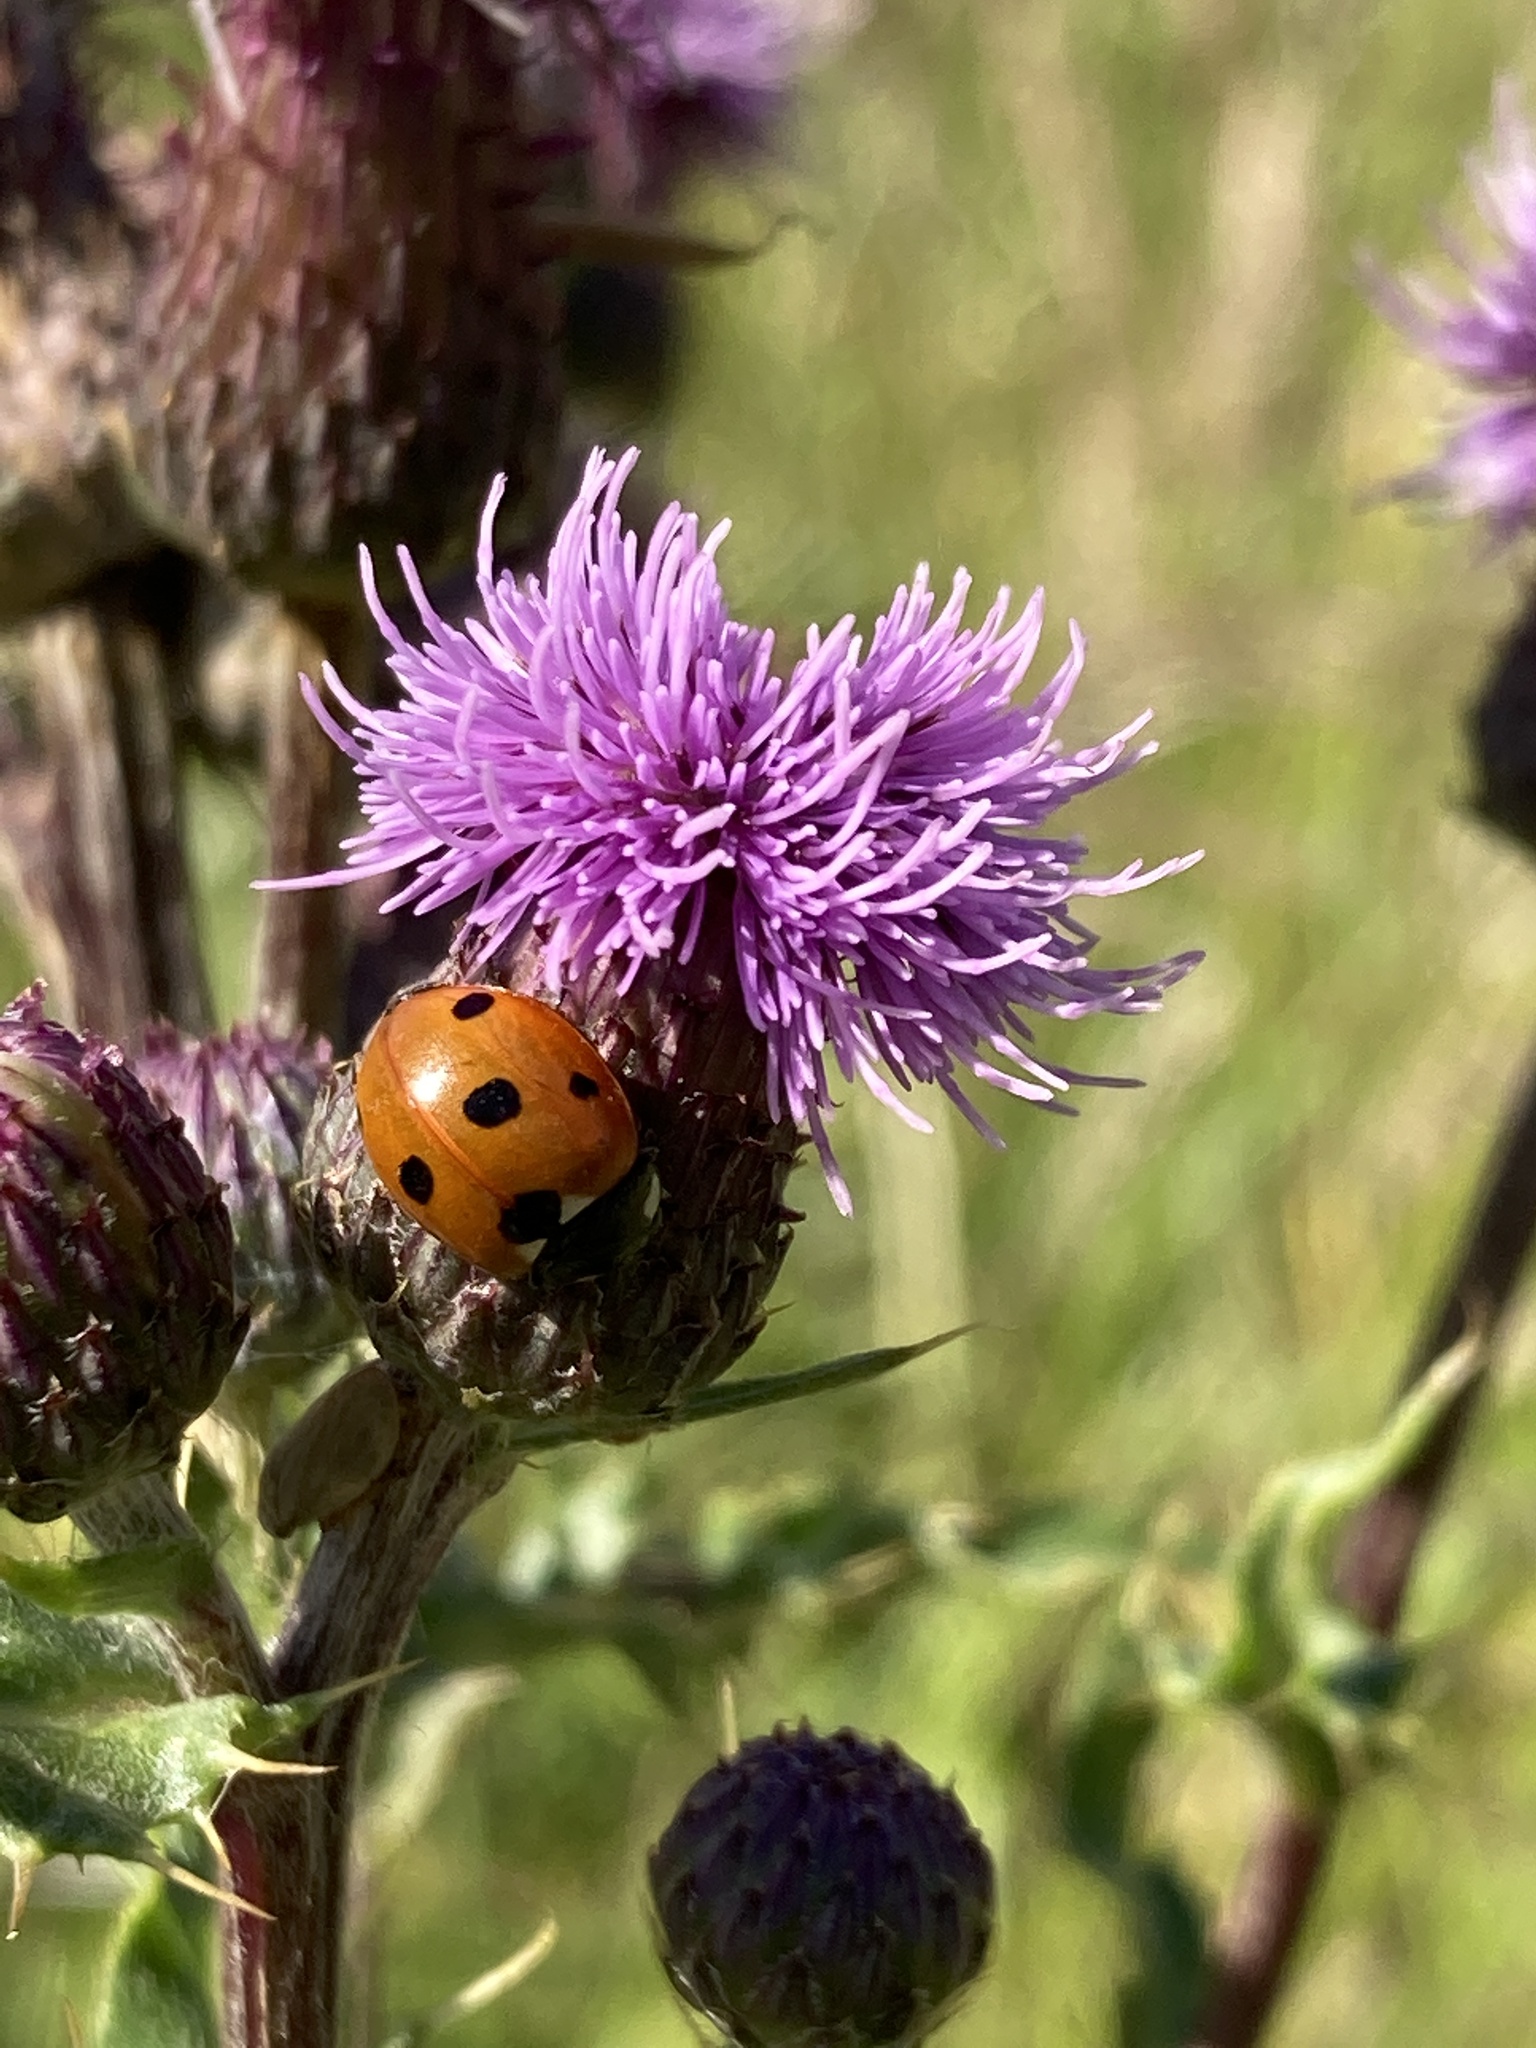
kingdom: Animalia
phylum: Arthropoda
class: Insecta
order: Coleoptera
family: Coccinellidae
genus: Coccinella
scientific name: Coccinella septempunctata
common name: Sevenspotted lady beetle
